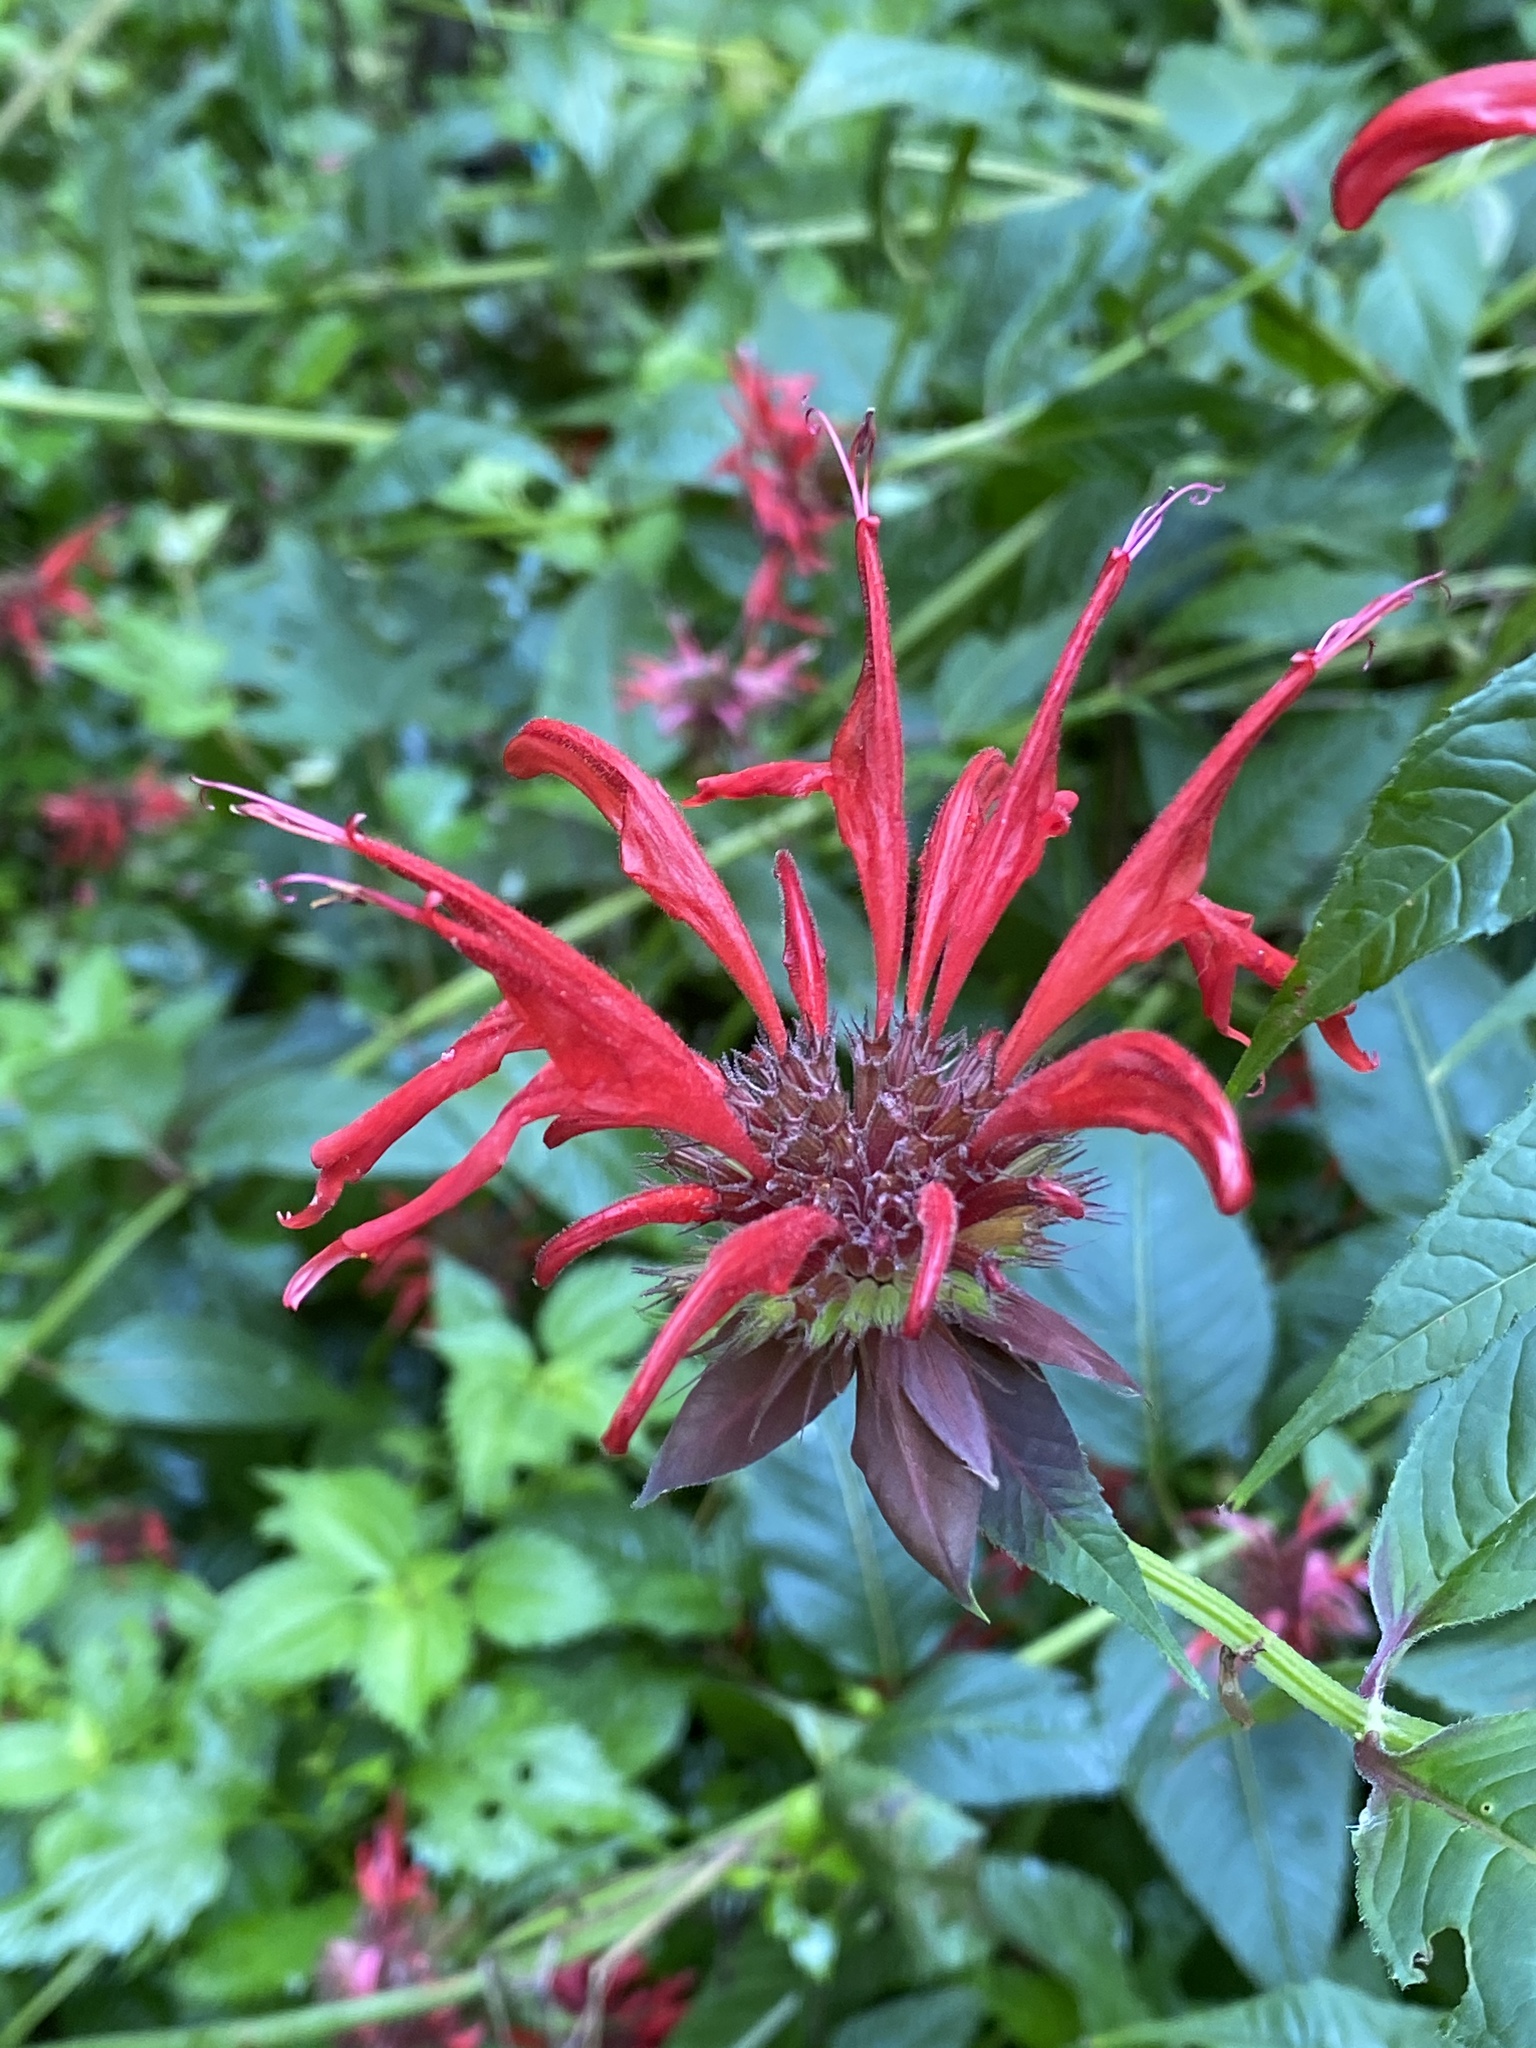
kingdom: Plantae
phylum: Tracheophyta
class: Magnoliopsida
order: Lamiales
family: Lamiaceae
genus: Monarda
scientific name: Monarda didyma
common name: Beebalm
